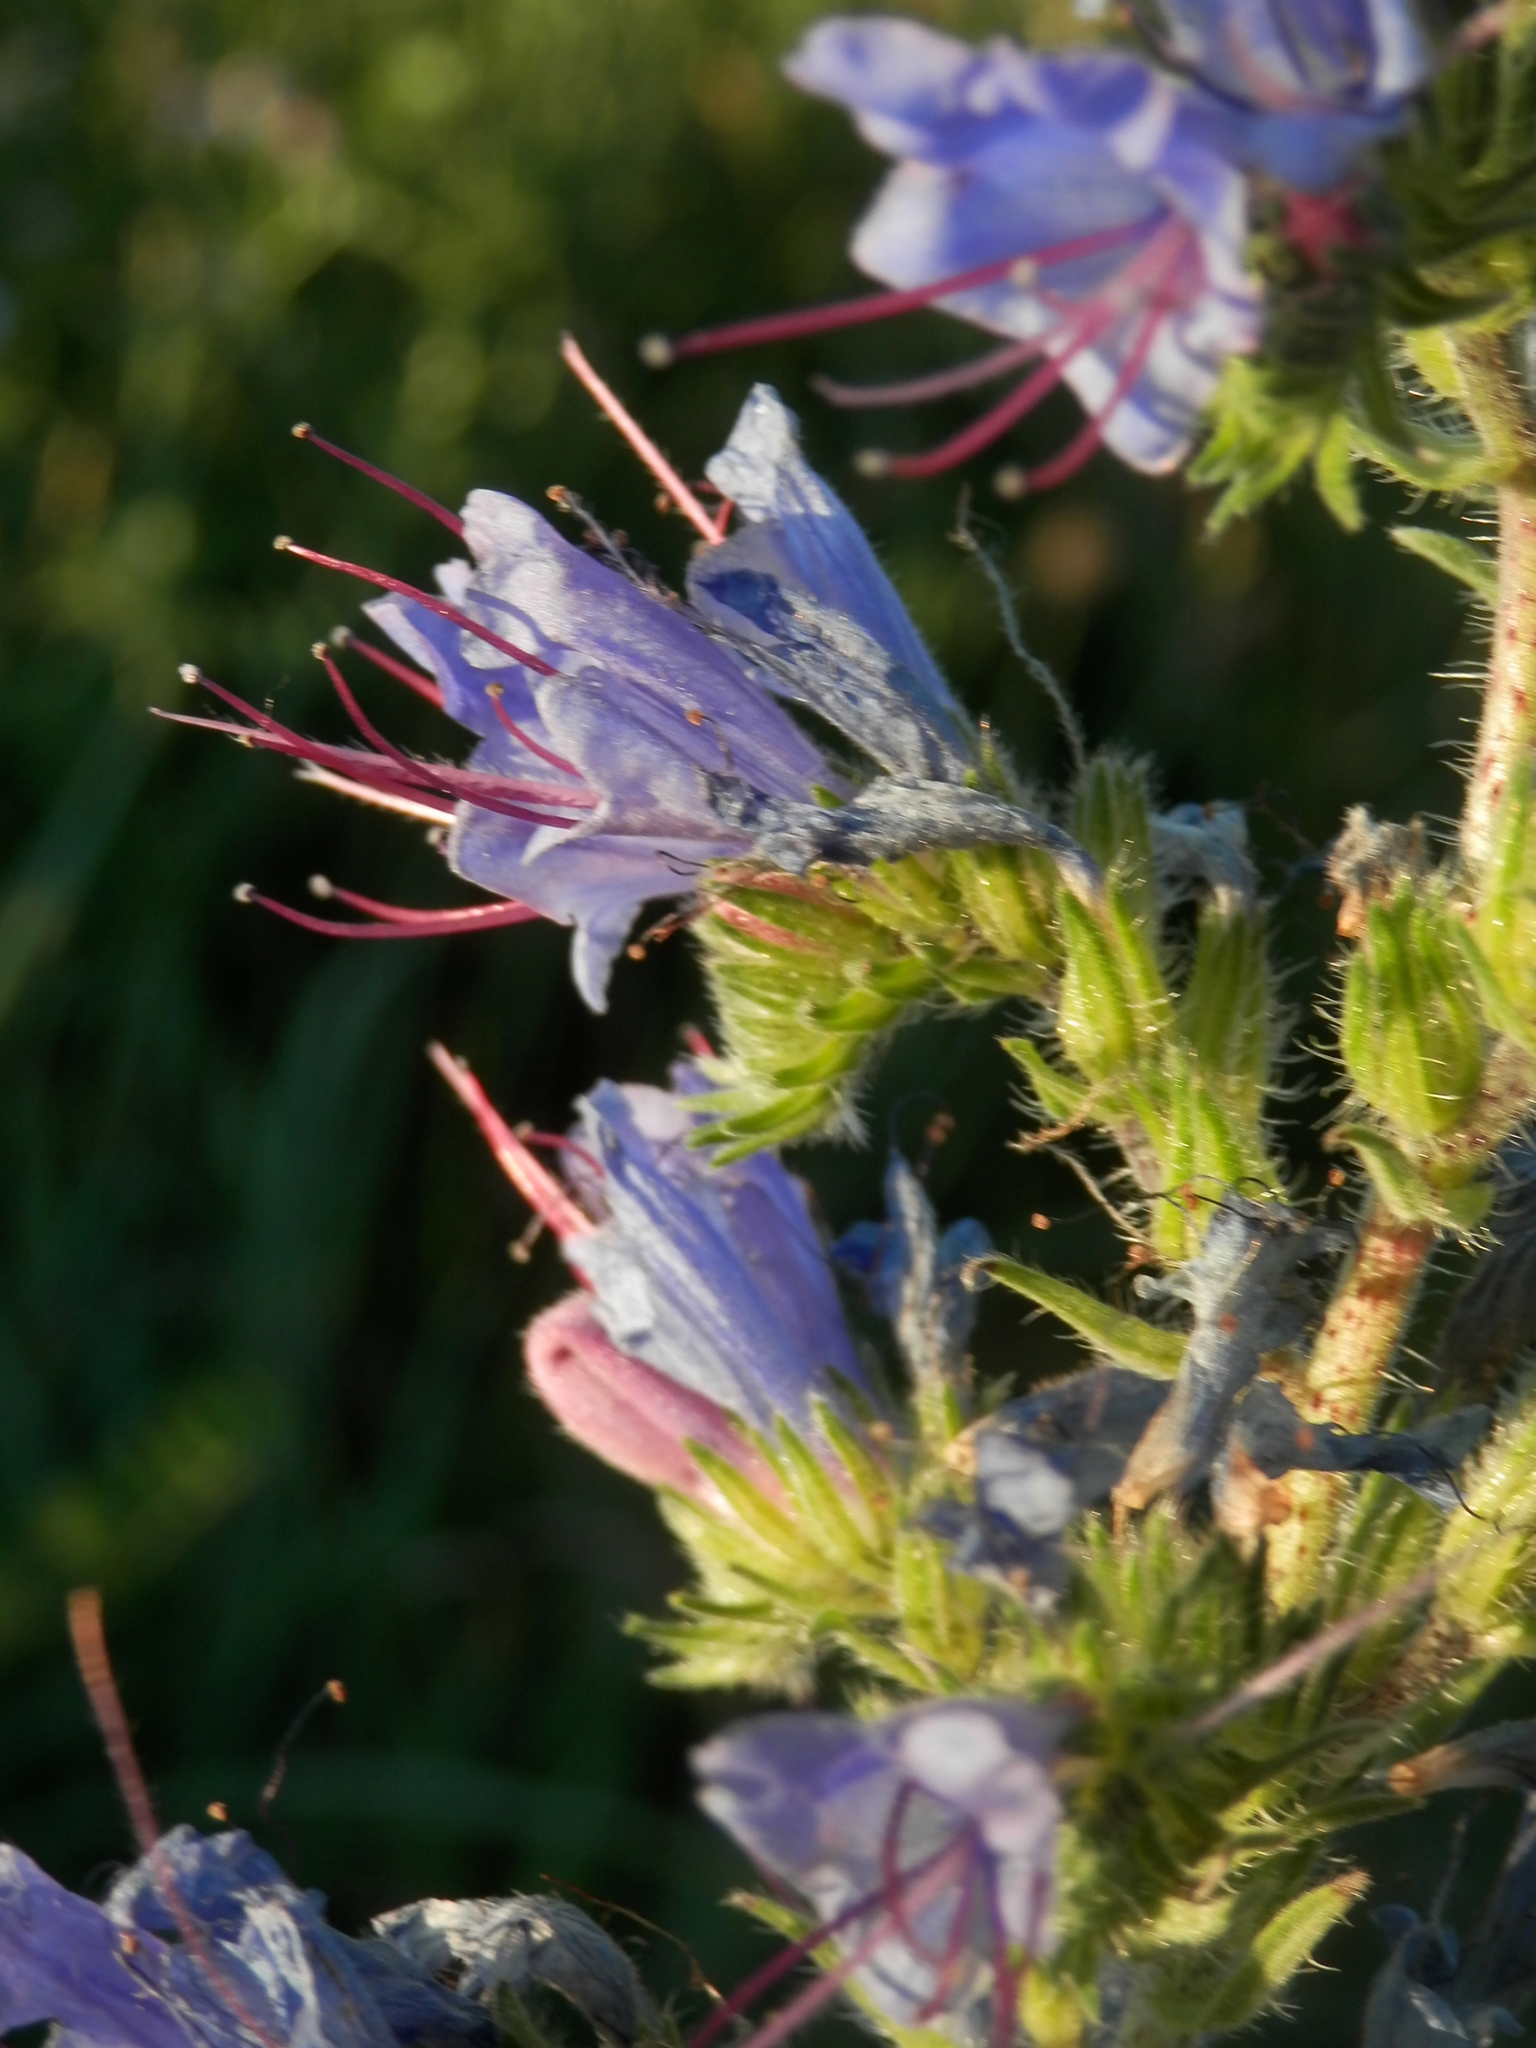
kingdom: Plantae
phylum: Tracheophyta
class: Magnoliopsida
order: Boraginales
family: Boraginaceae
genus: Echium
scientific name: Echium vulgare
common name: Common viper's bugloss
